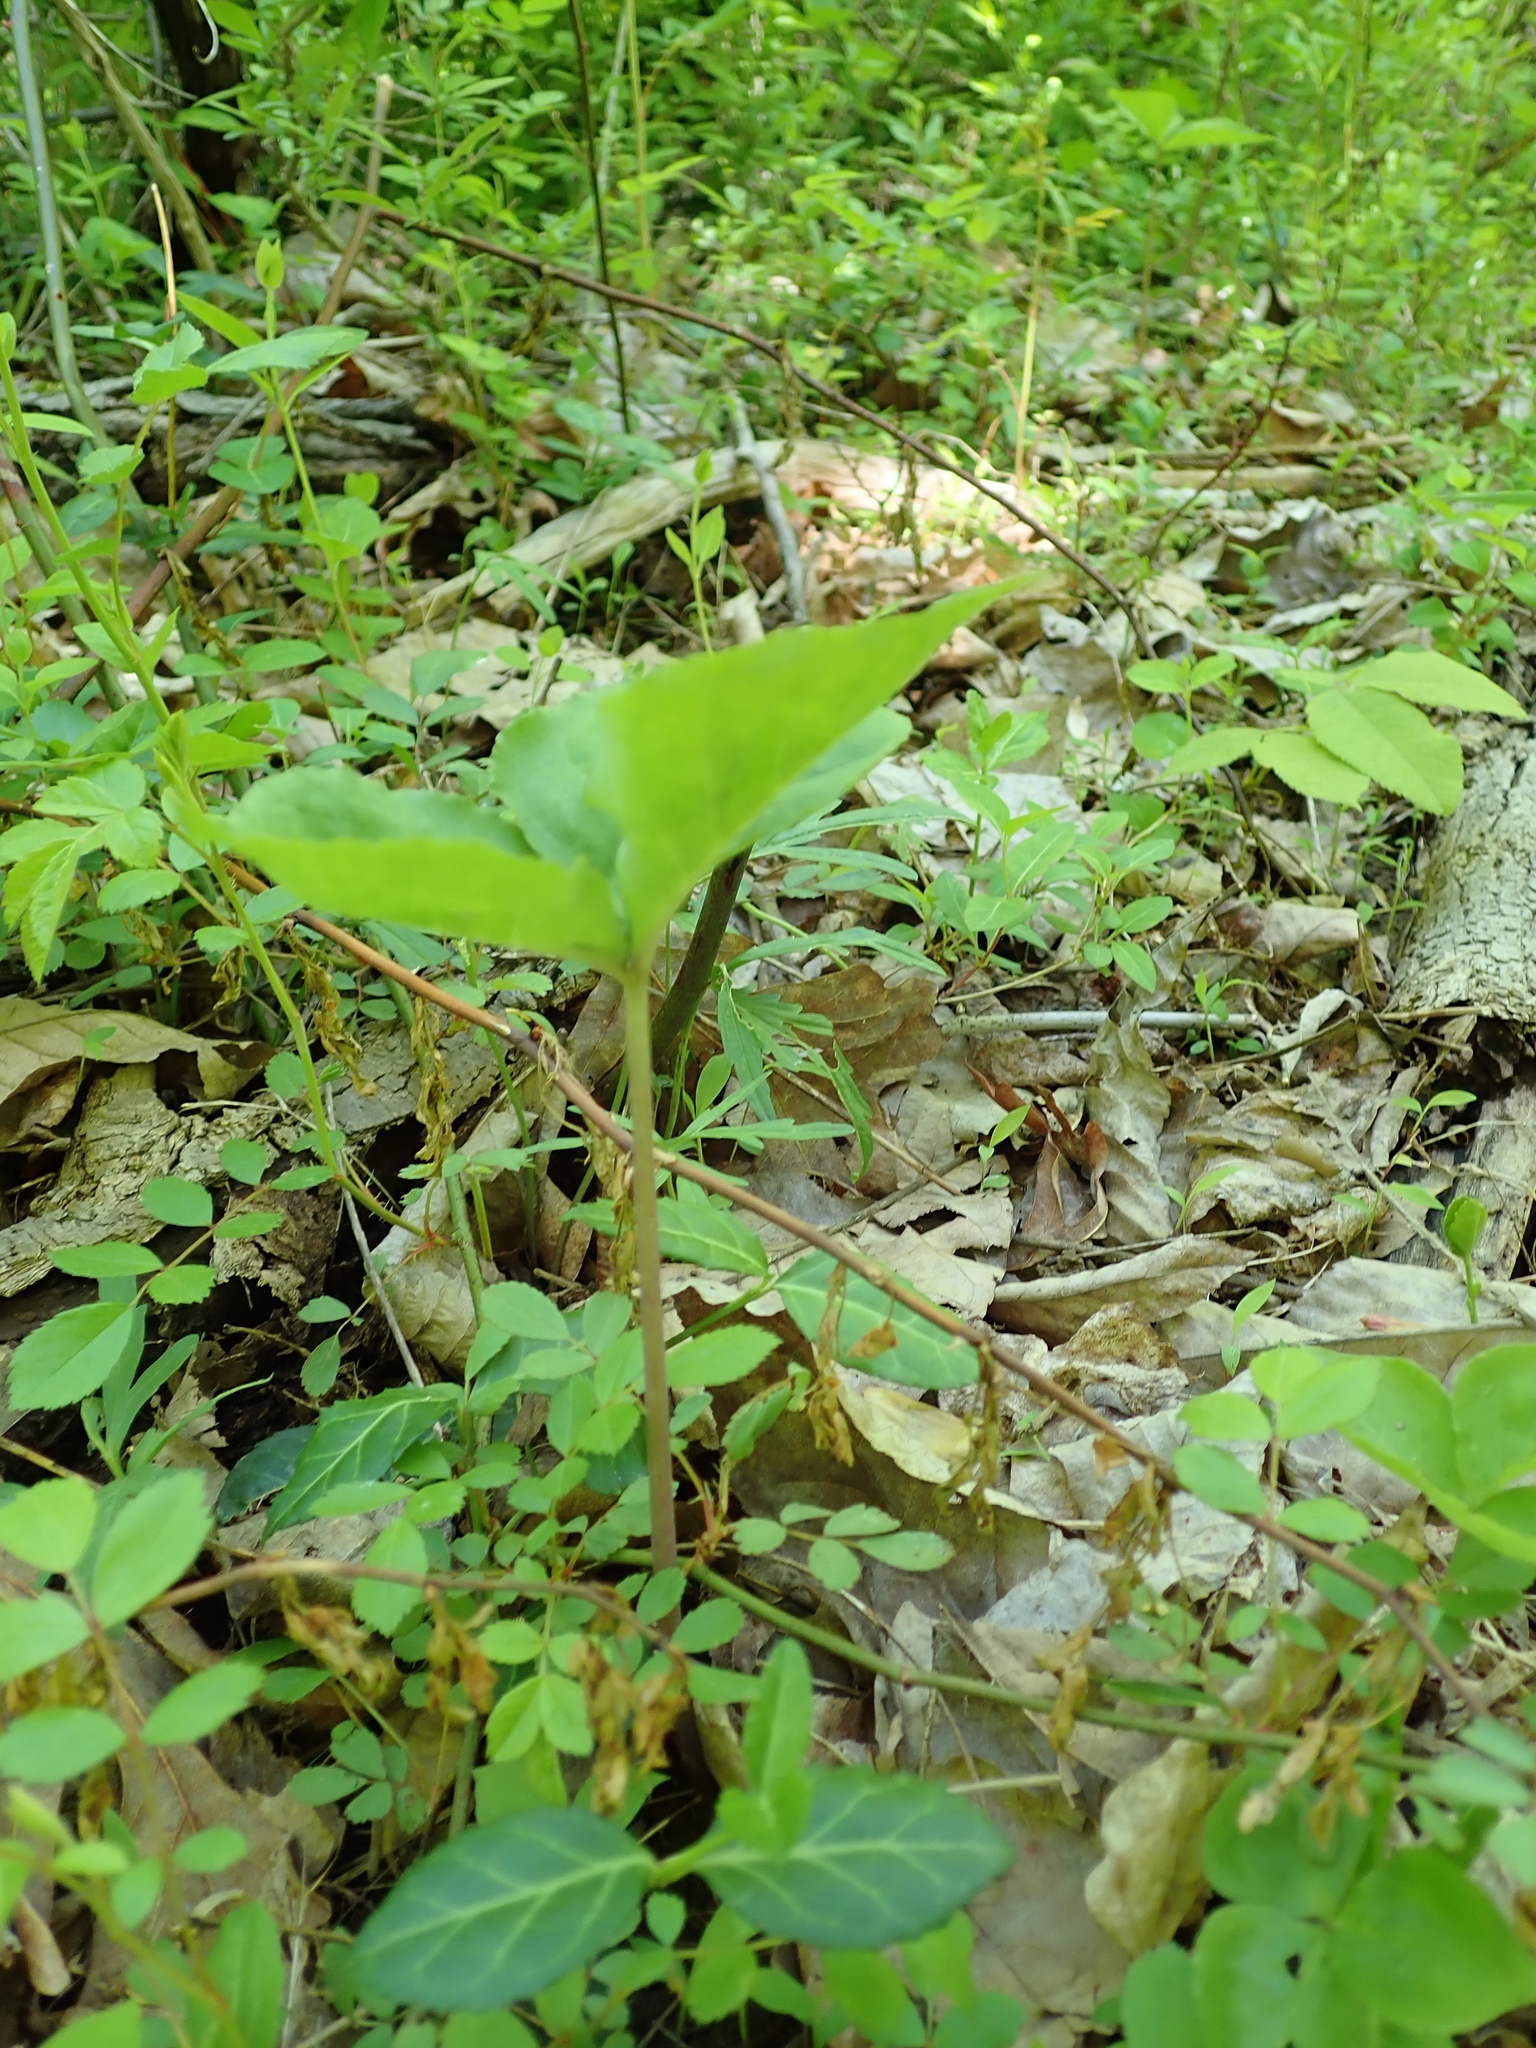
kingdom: Plantae
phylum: Tracheophyta
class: Liliopsida
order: Alismatales
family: Araceae
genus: Arisaema
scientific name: Arisaema triphyllum
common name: Jack-in-the-pulpit
